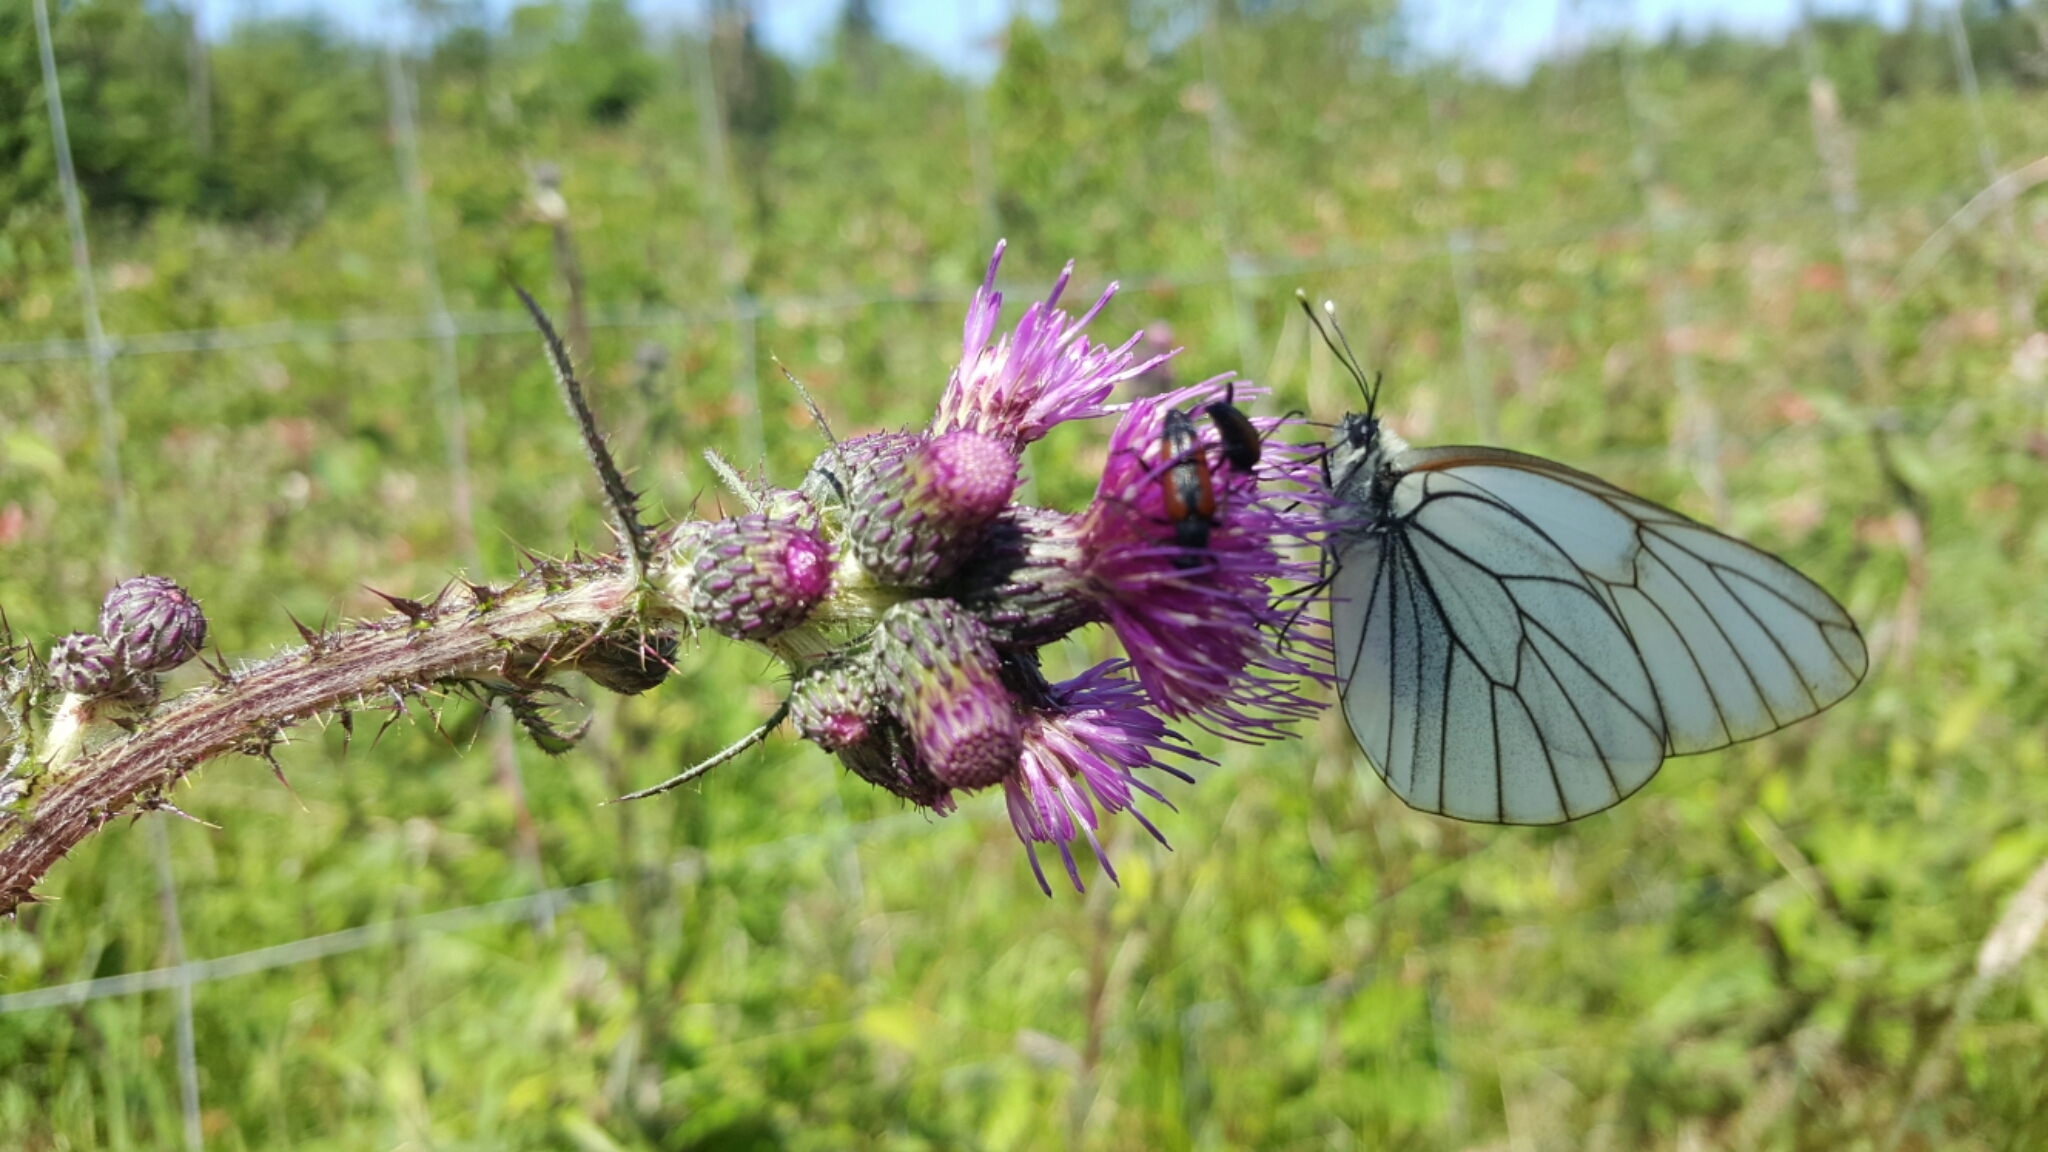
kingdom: Animalia
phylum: Arthropoda
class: Insecta
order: Lepidoptera
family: Pieridae
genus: Aporia
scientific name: Aporia crataegi
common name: Black-veined white
